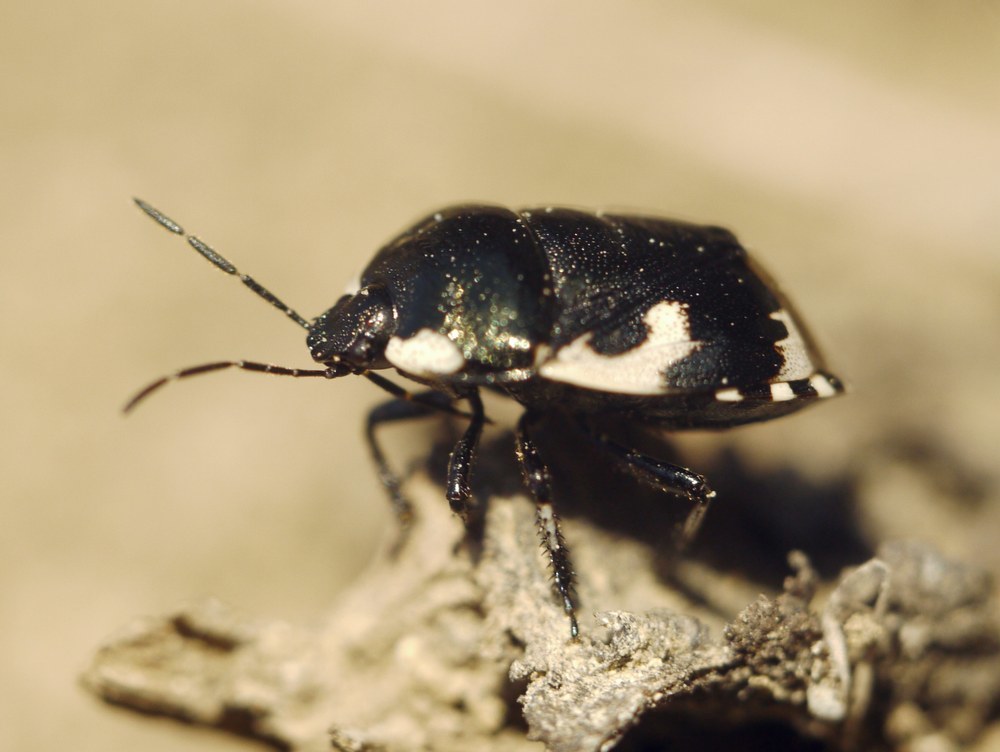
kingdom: Animalia
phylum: Arthropoda
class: Insecta
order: Hemiptera
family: Cydnidae
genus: Tritomegas
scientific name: Tritomegas bicolor
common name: Pied shieldbug
